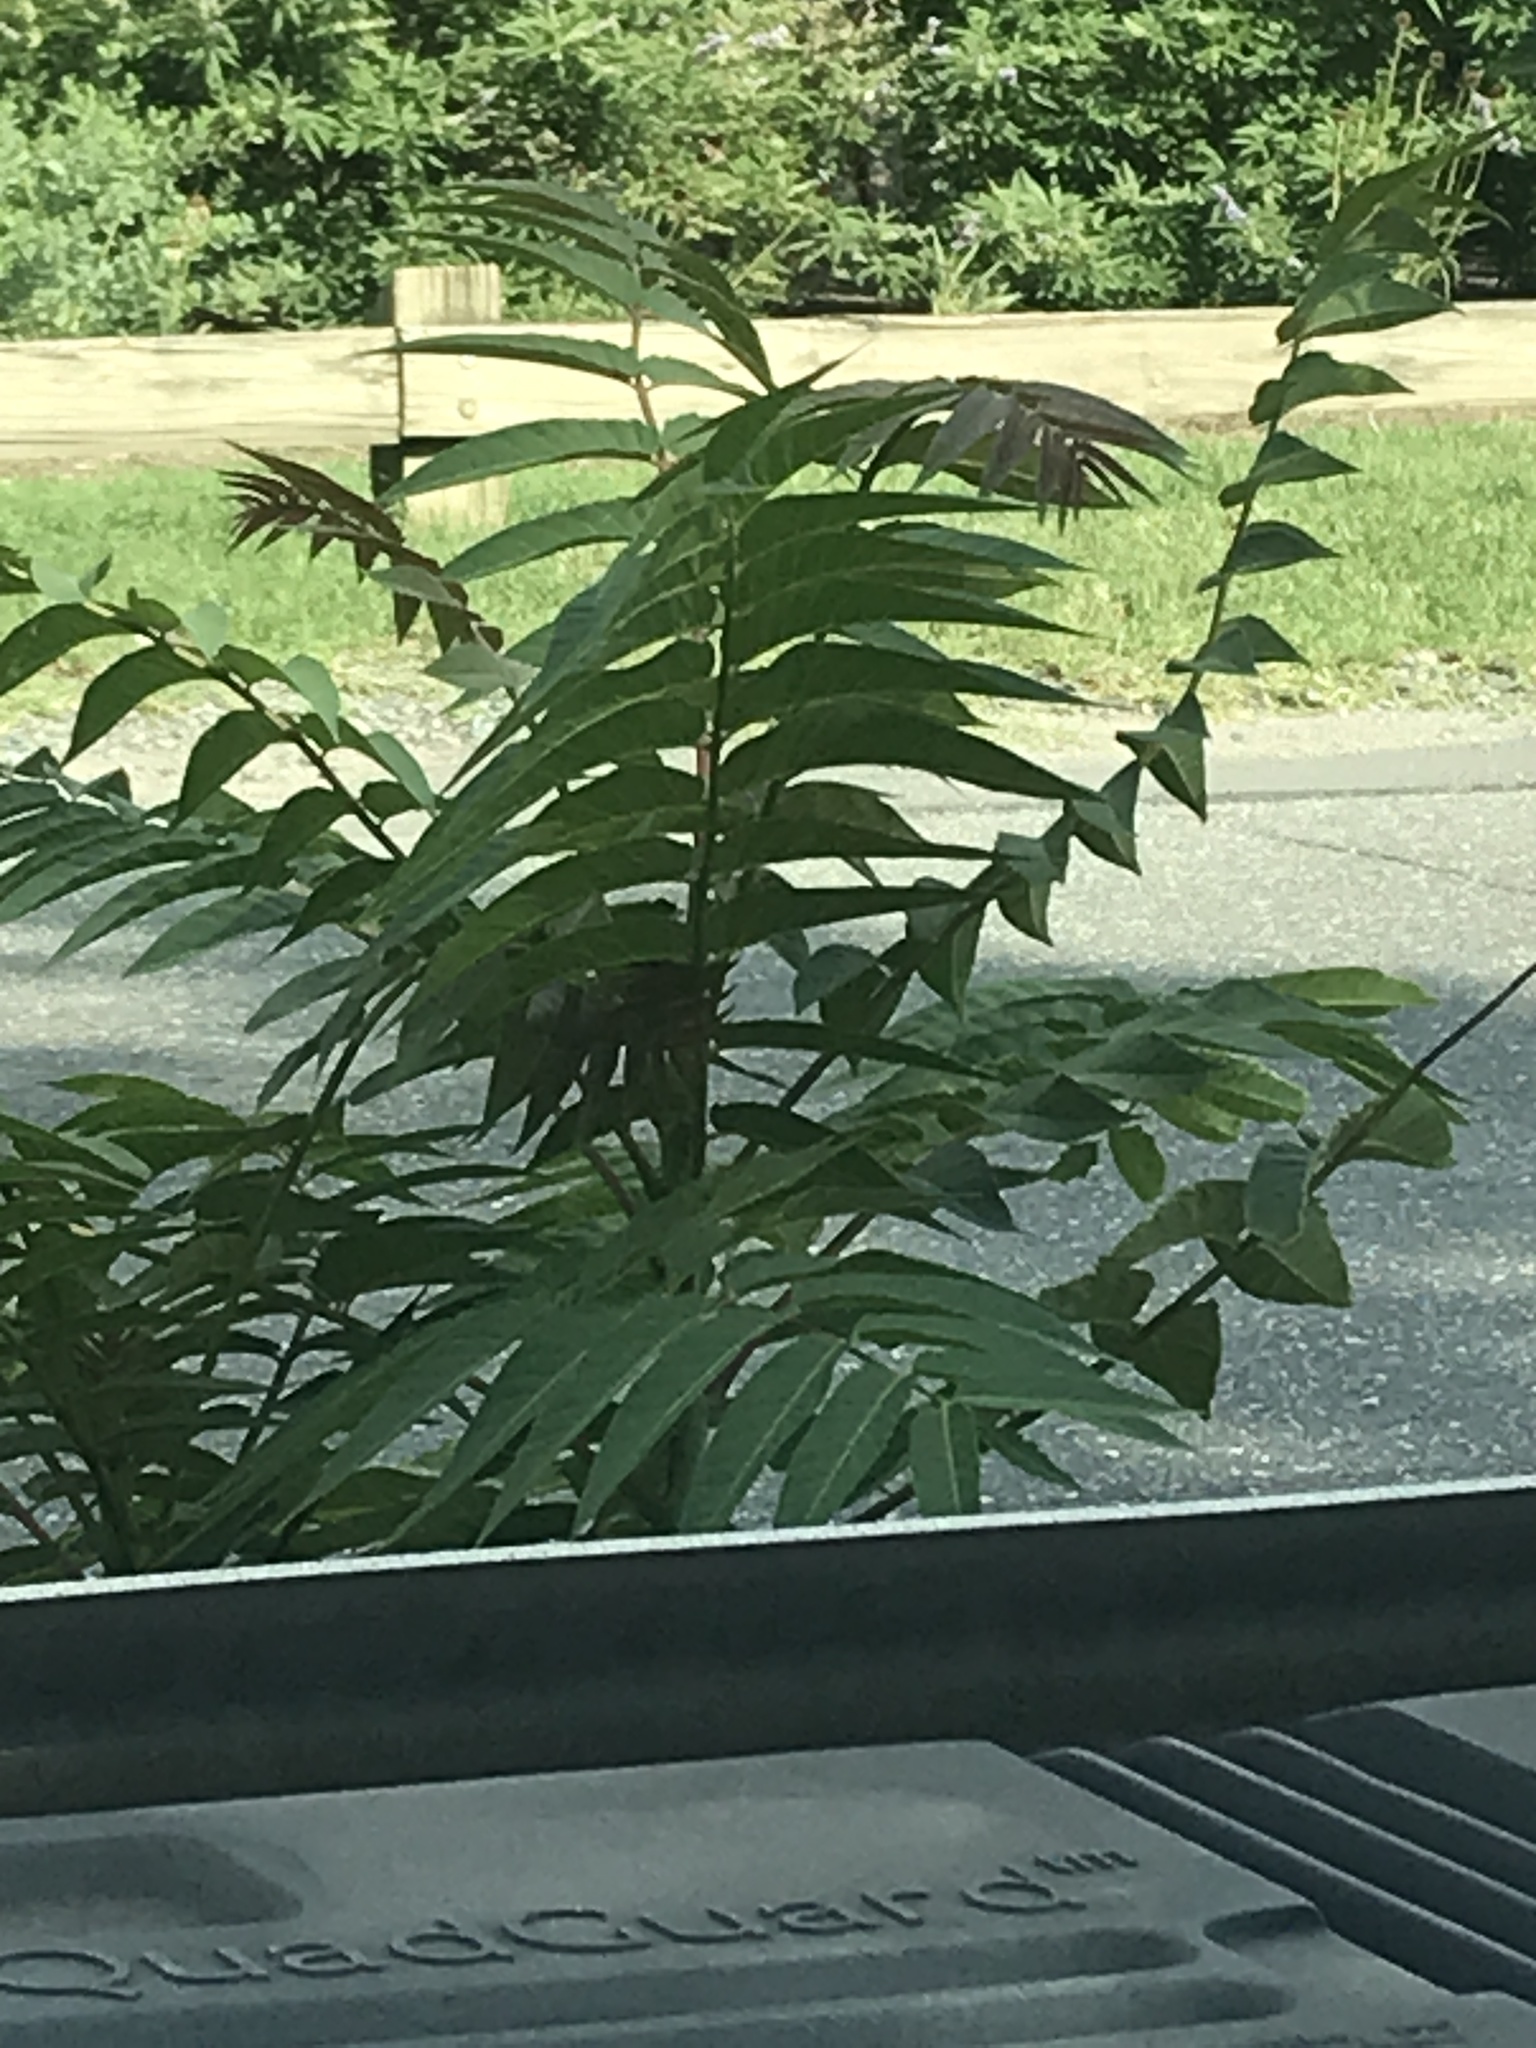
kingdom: Plantae
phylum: Tracheophyta
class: Magnoliopsida
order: Sapindales
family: Simaroubaceae
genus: Ailanthus
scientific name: Ailanthus altissima
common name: Tree-of-heaven
